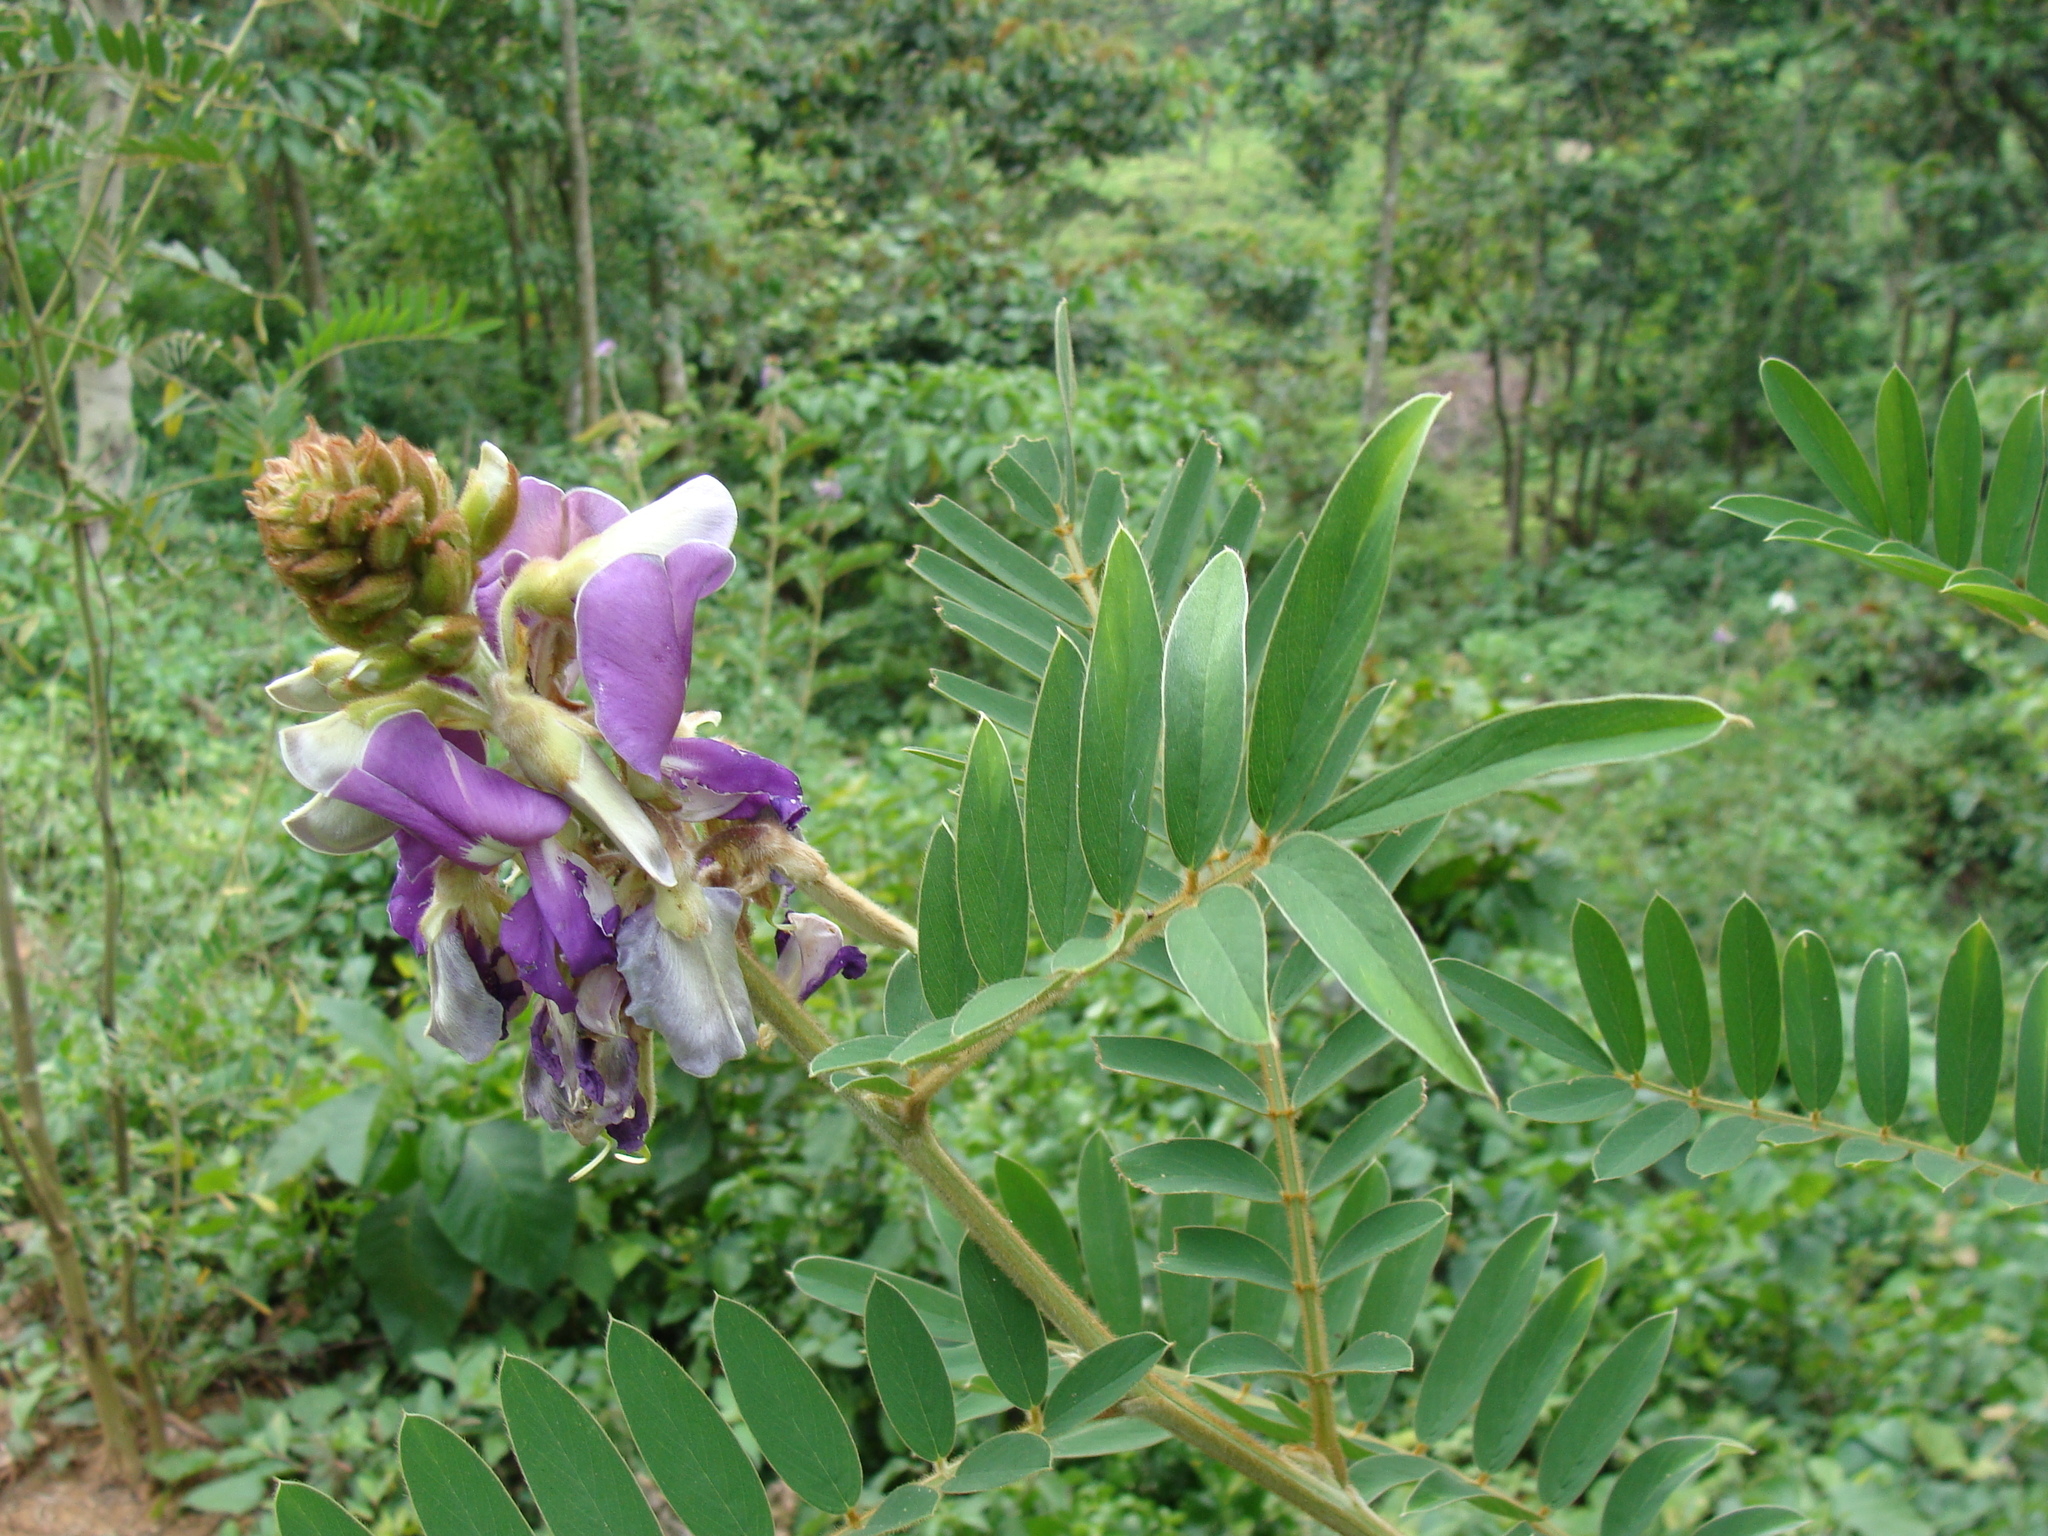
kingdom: Plantae
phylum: Tracheophyta
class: Magnoliopsida
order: Fabales
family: Fabaceae
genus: Tephrosia
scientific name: Tephrosia vogelii
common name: Vogel tephrosia
